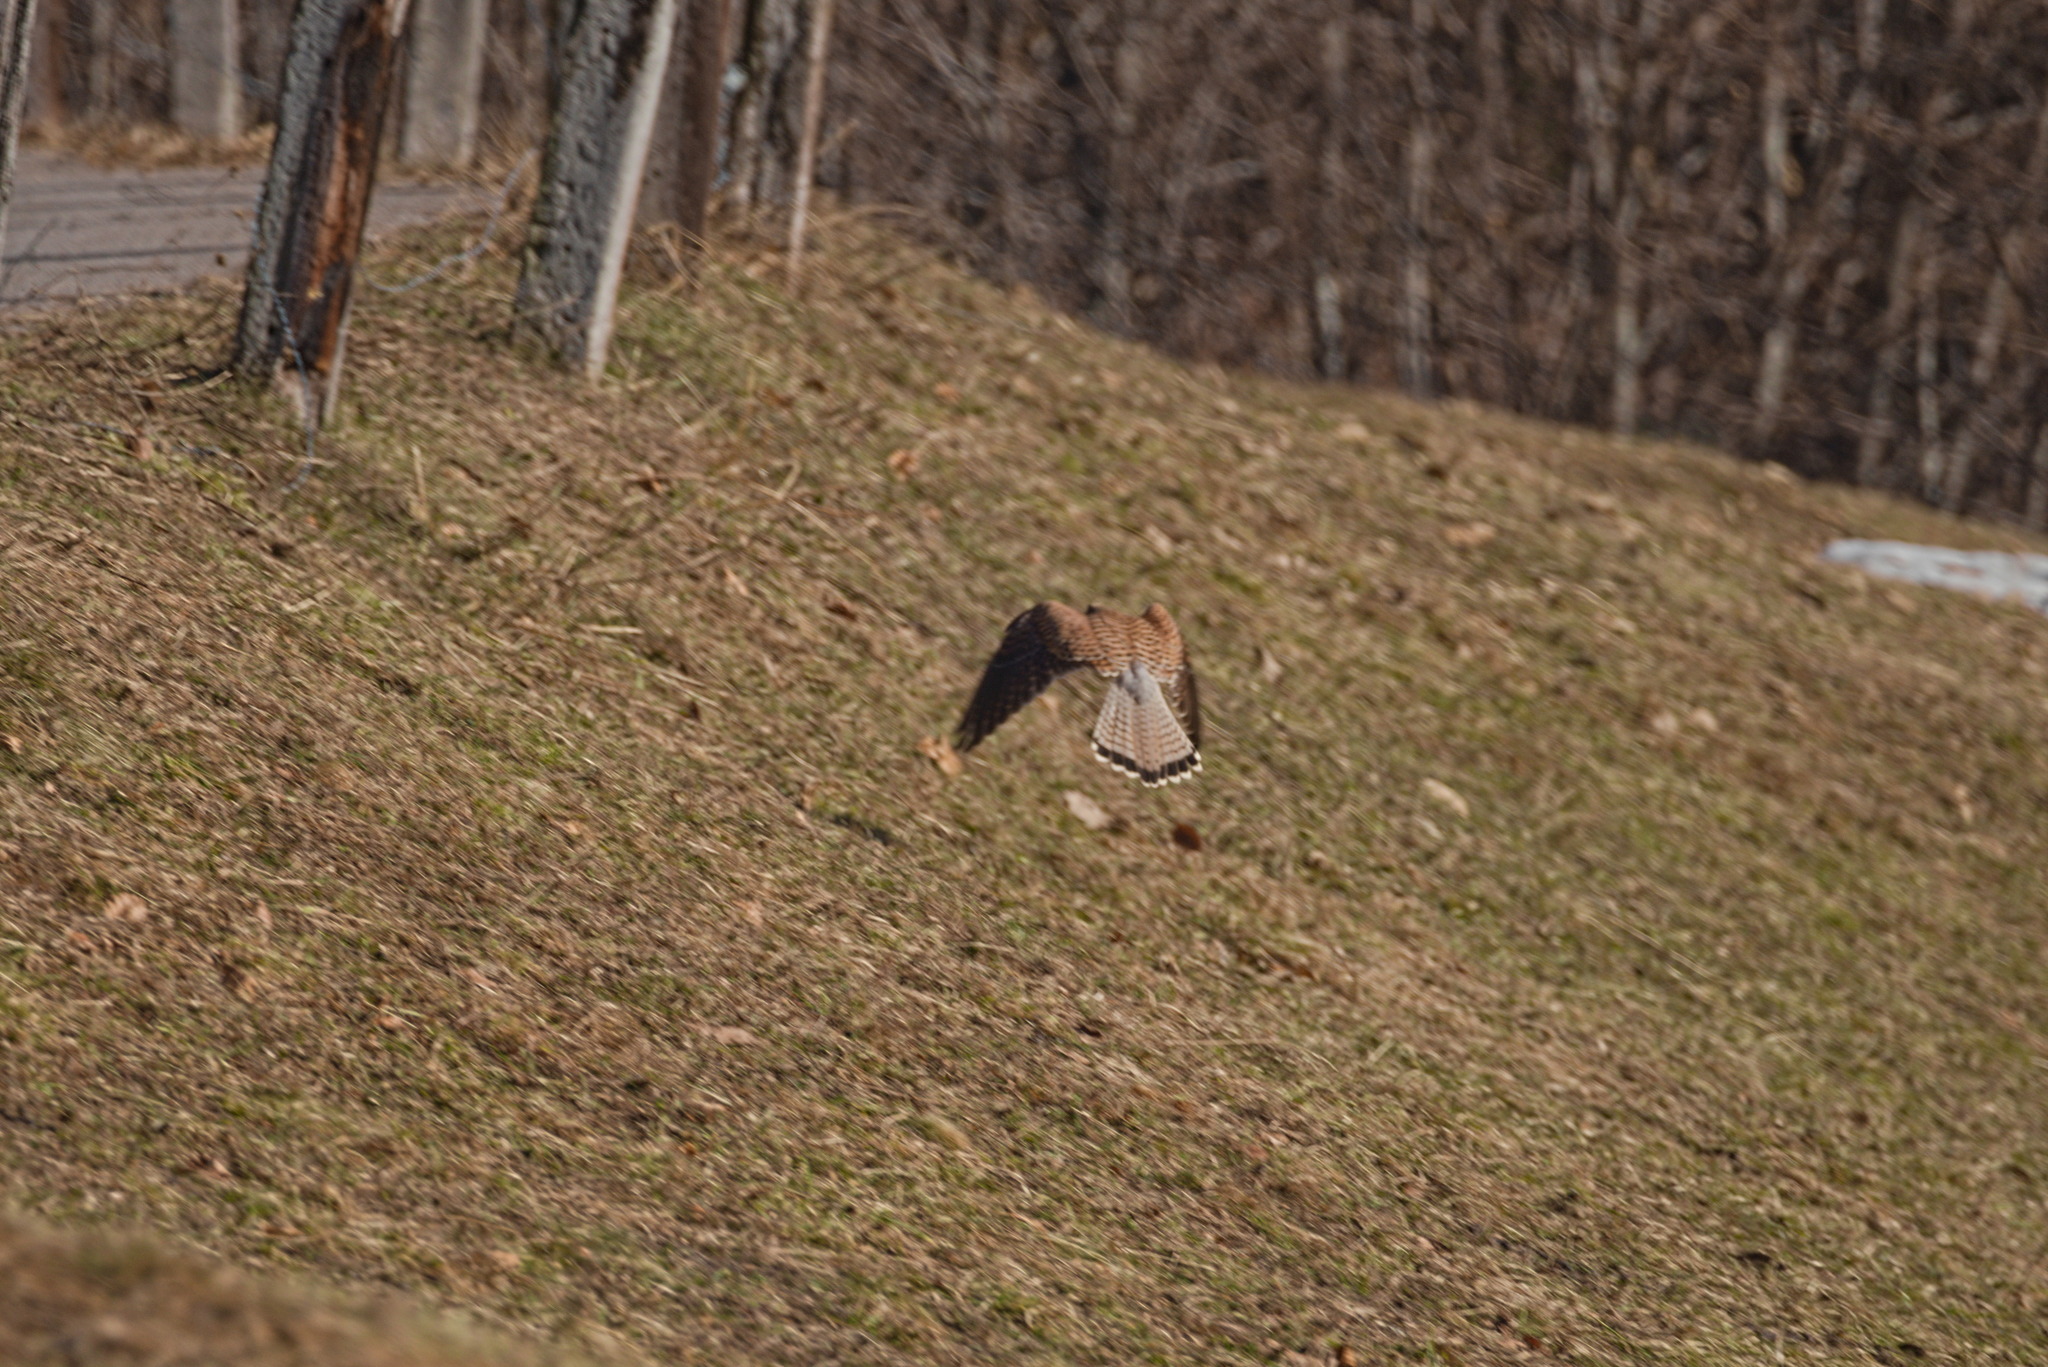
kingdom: Animalia
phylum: Chordata
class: Aves
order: Falconiformes
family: Falconidae
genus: Falco
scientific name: Falco tinnunculus
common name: Common kestrel
